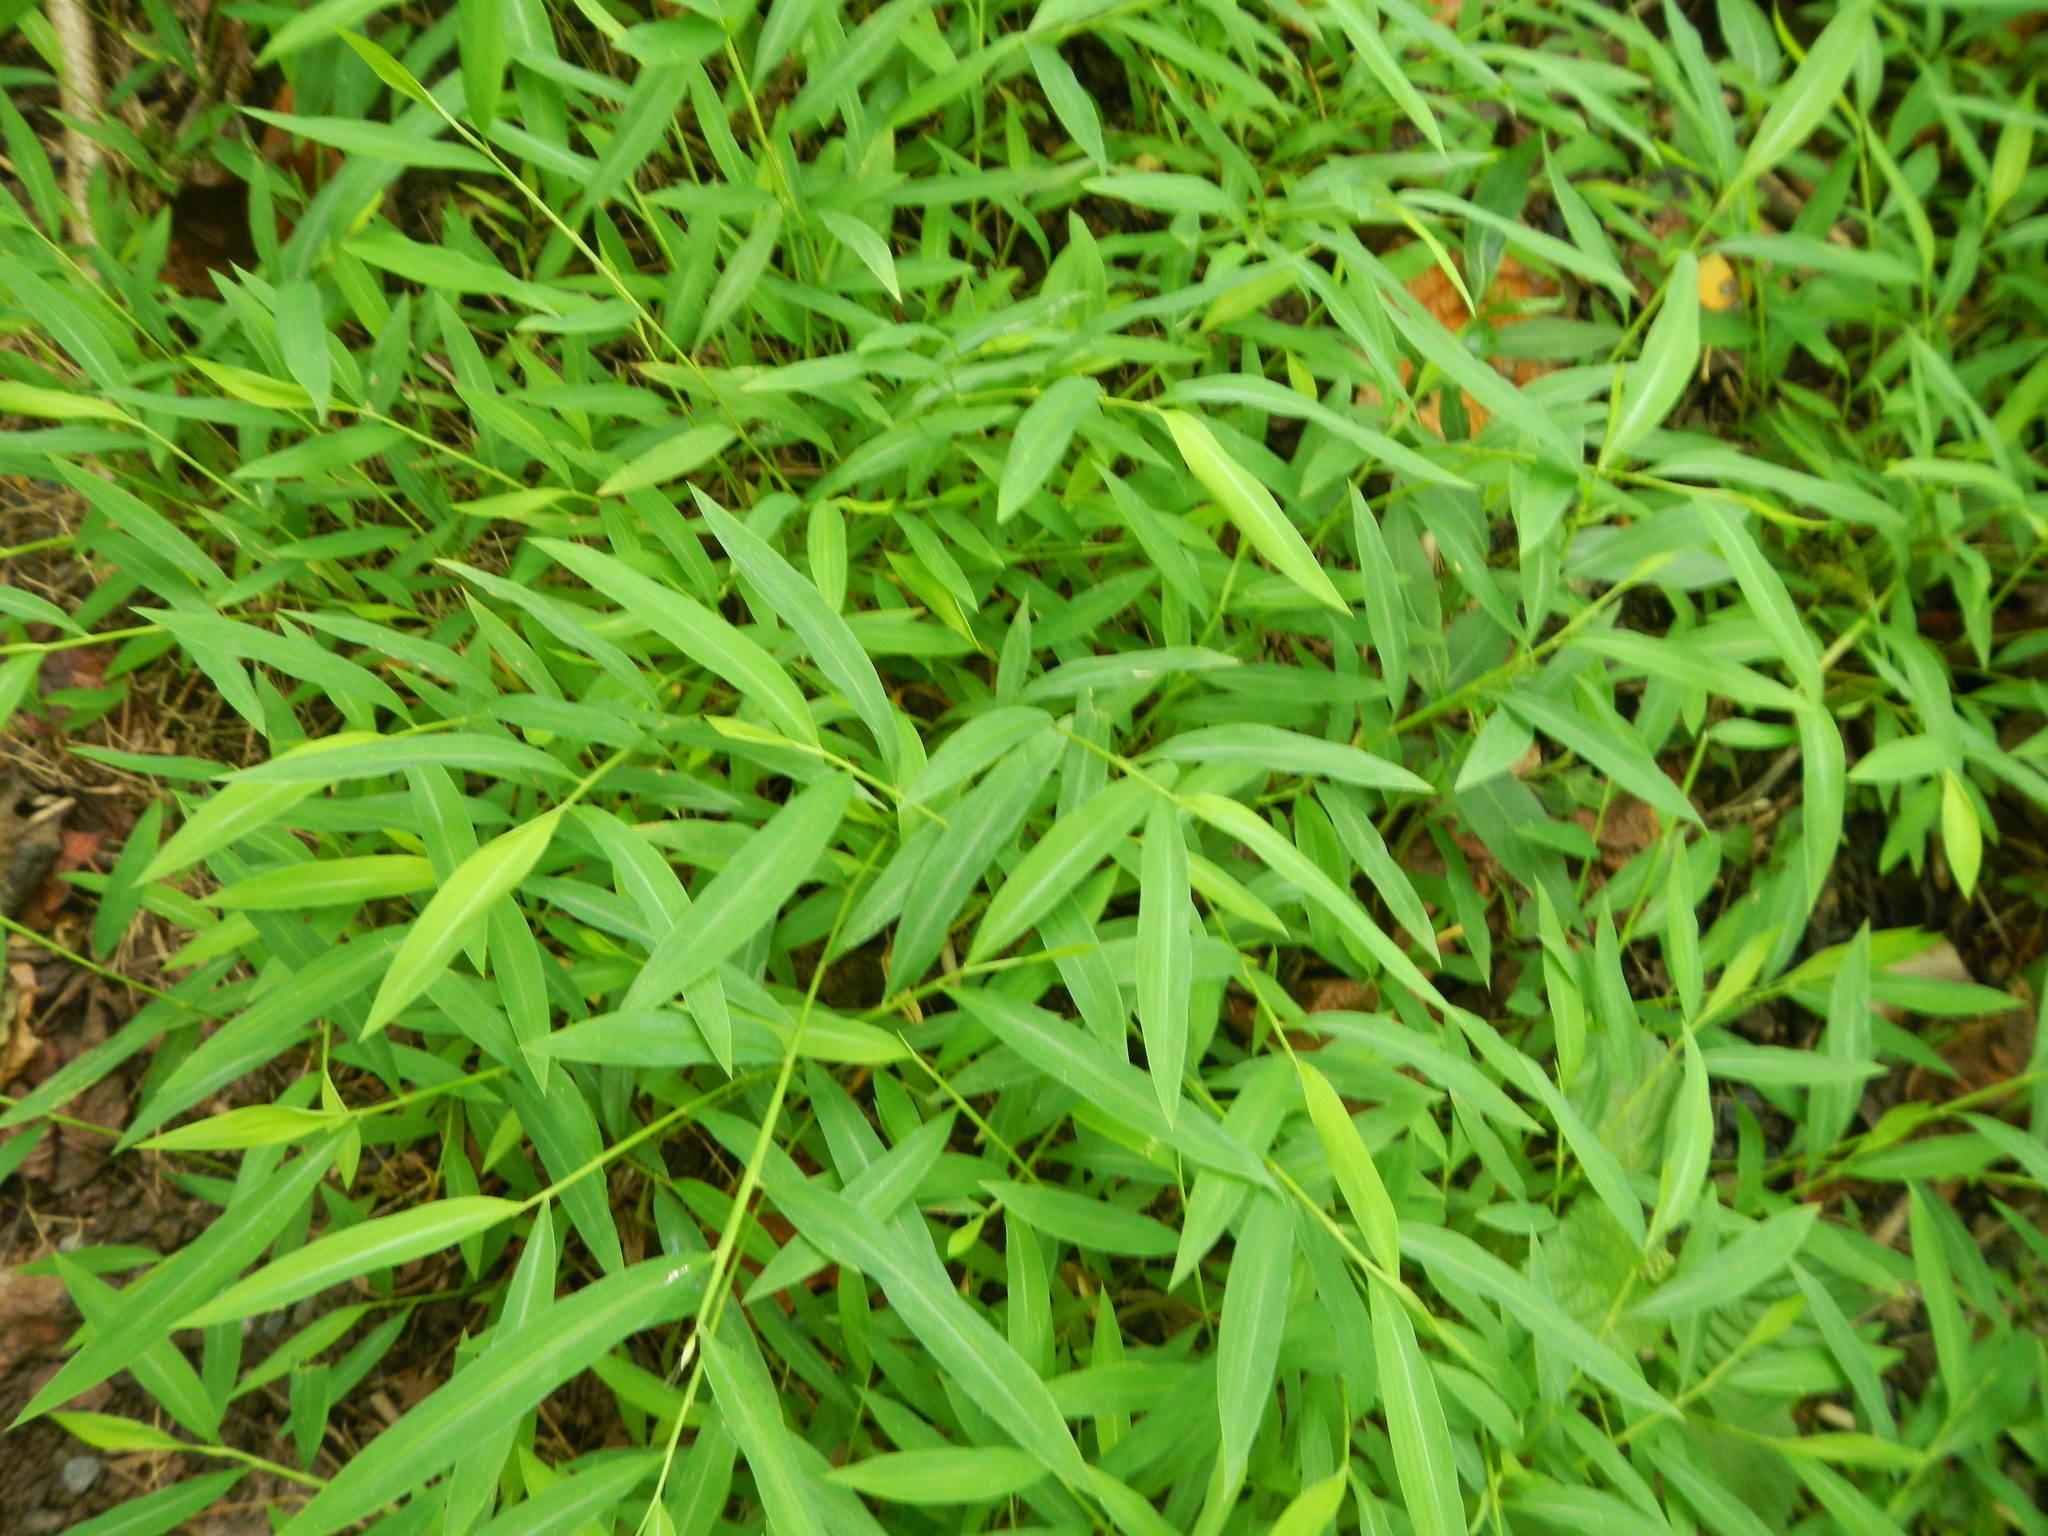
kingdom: Plantae
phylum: Tracheophyta
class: Liliopsida
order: Poales
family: Poaceae
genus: Microstegium
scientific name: Microstegium vimineum
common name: Japanese stiltgrass
